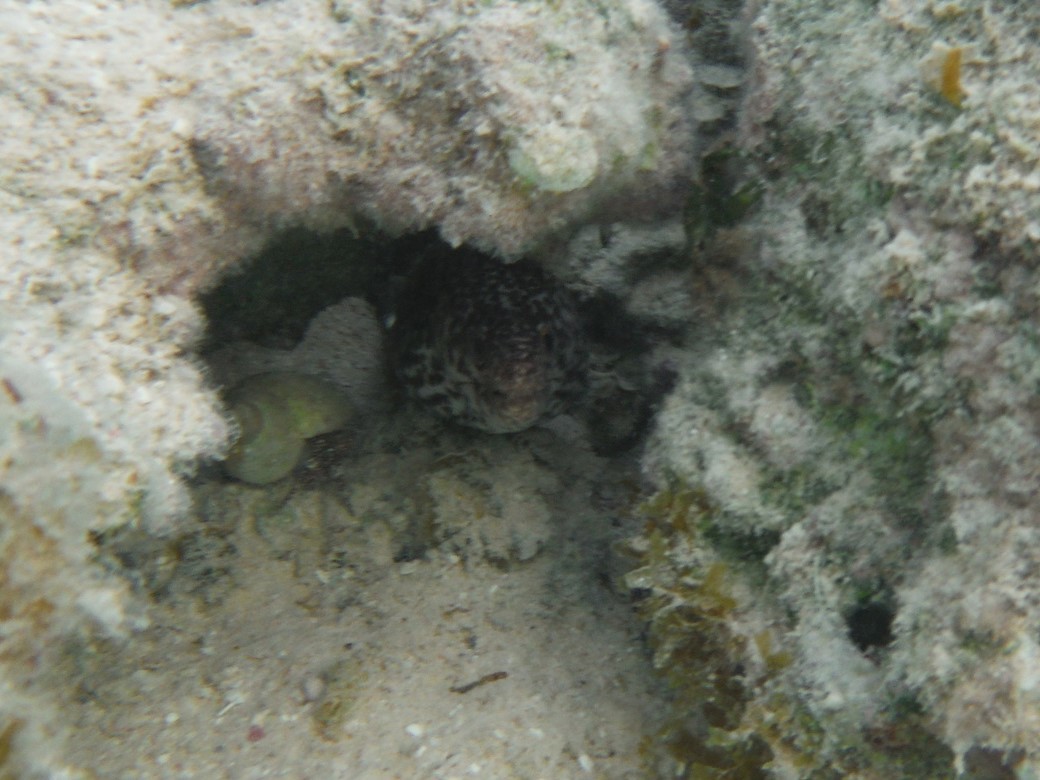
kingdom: Animalia
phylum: Chordata
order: Anguilliformes
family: Muraenidae
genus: Gymnothorax
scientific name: Gymnothorax moringa
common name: Spotted moray
